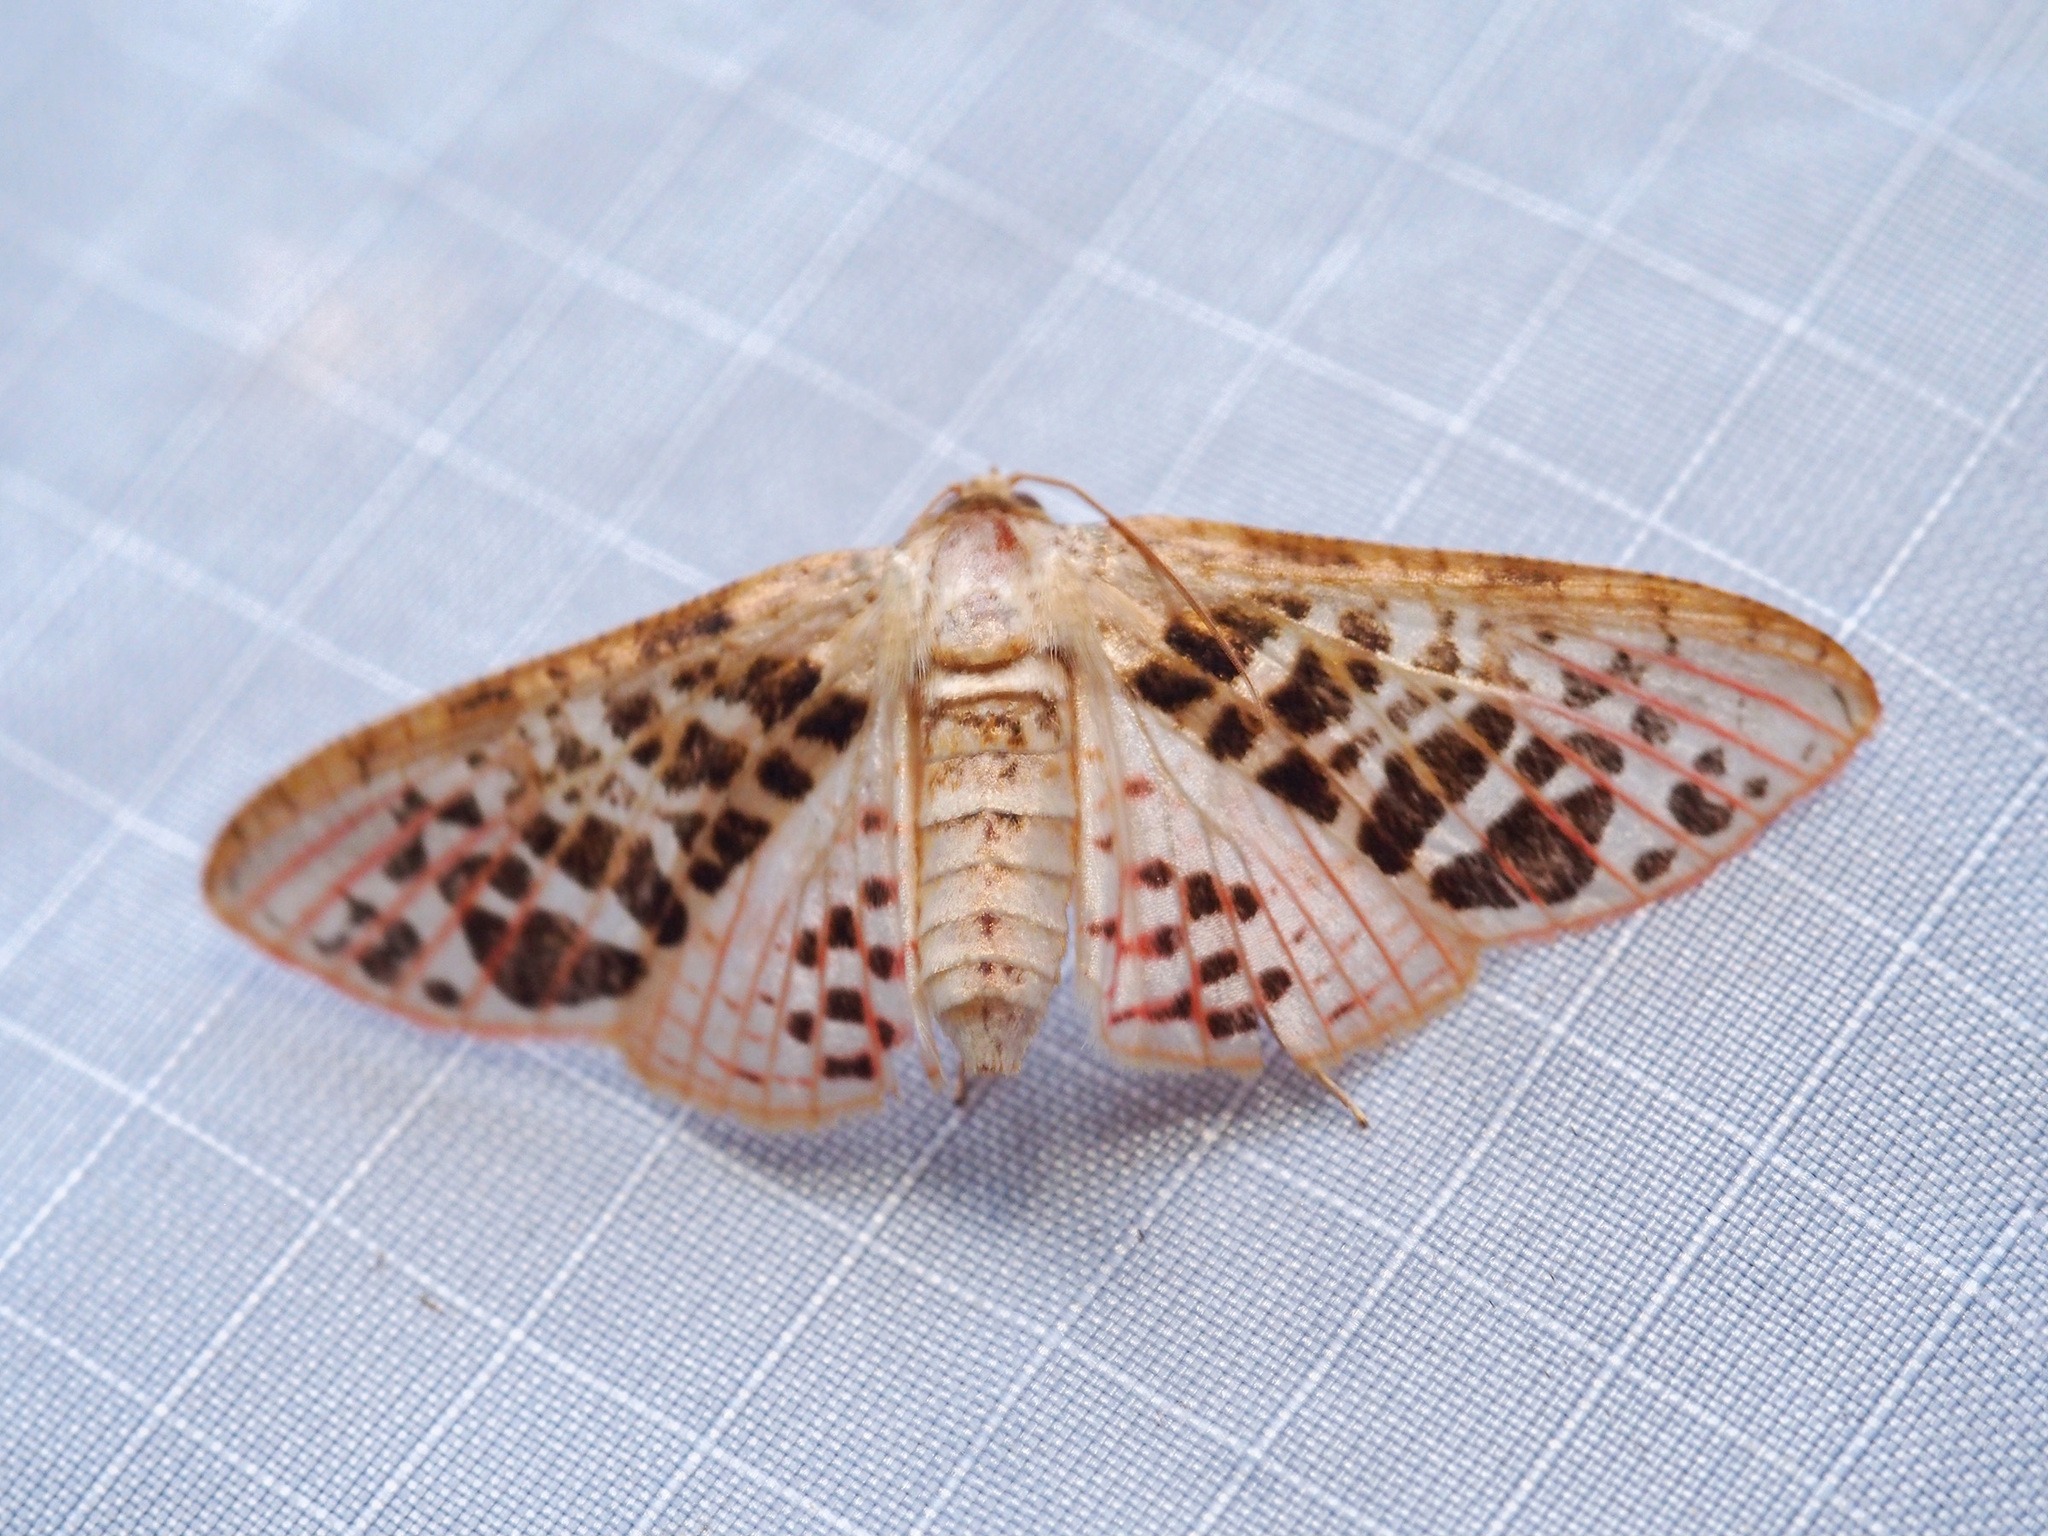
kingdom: Animalia
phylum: Arthropoda
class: Insecta
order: Lepidoptera
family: Thyrididae
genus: Rhodoneura
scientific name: Rhodoneura pudicula
